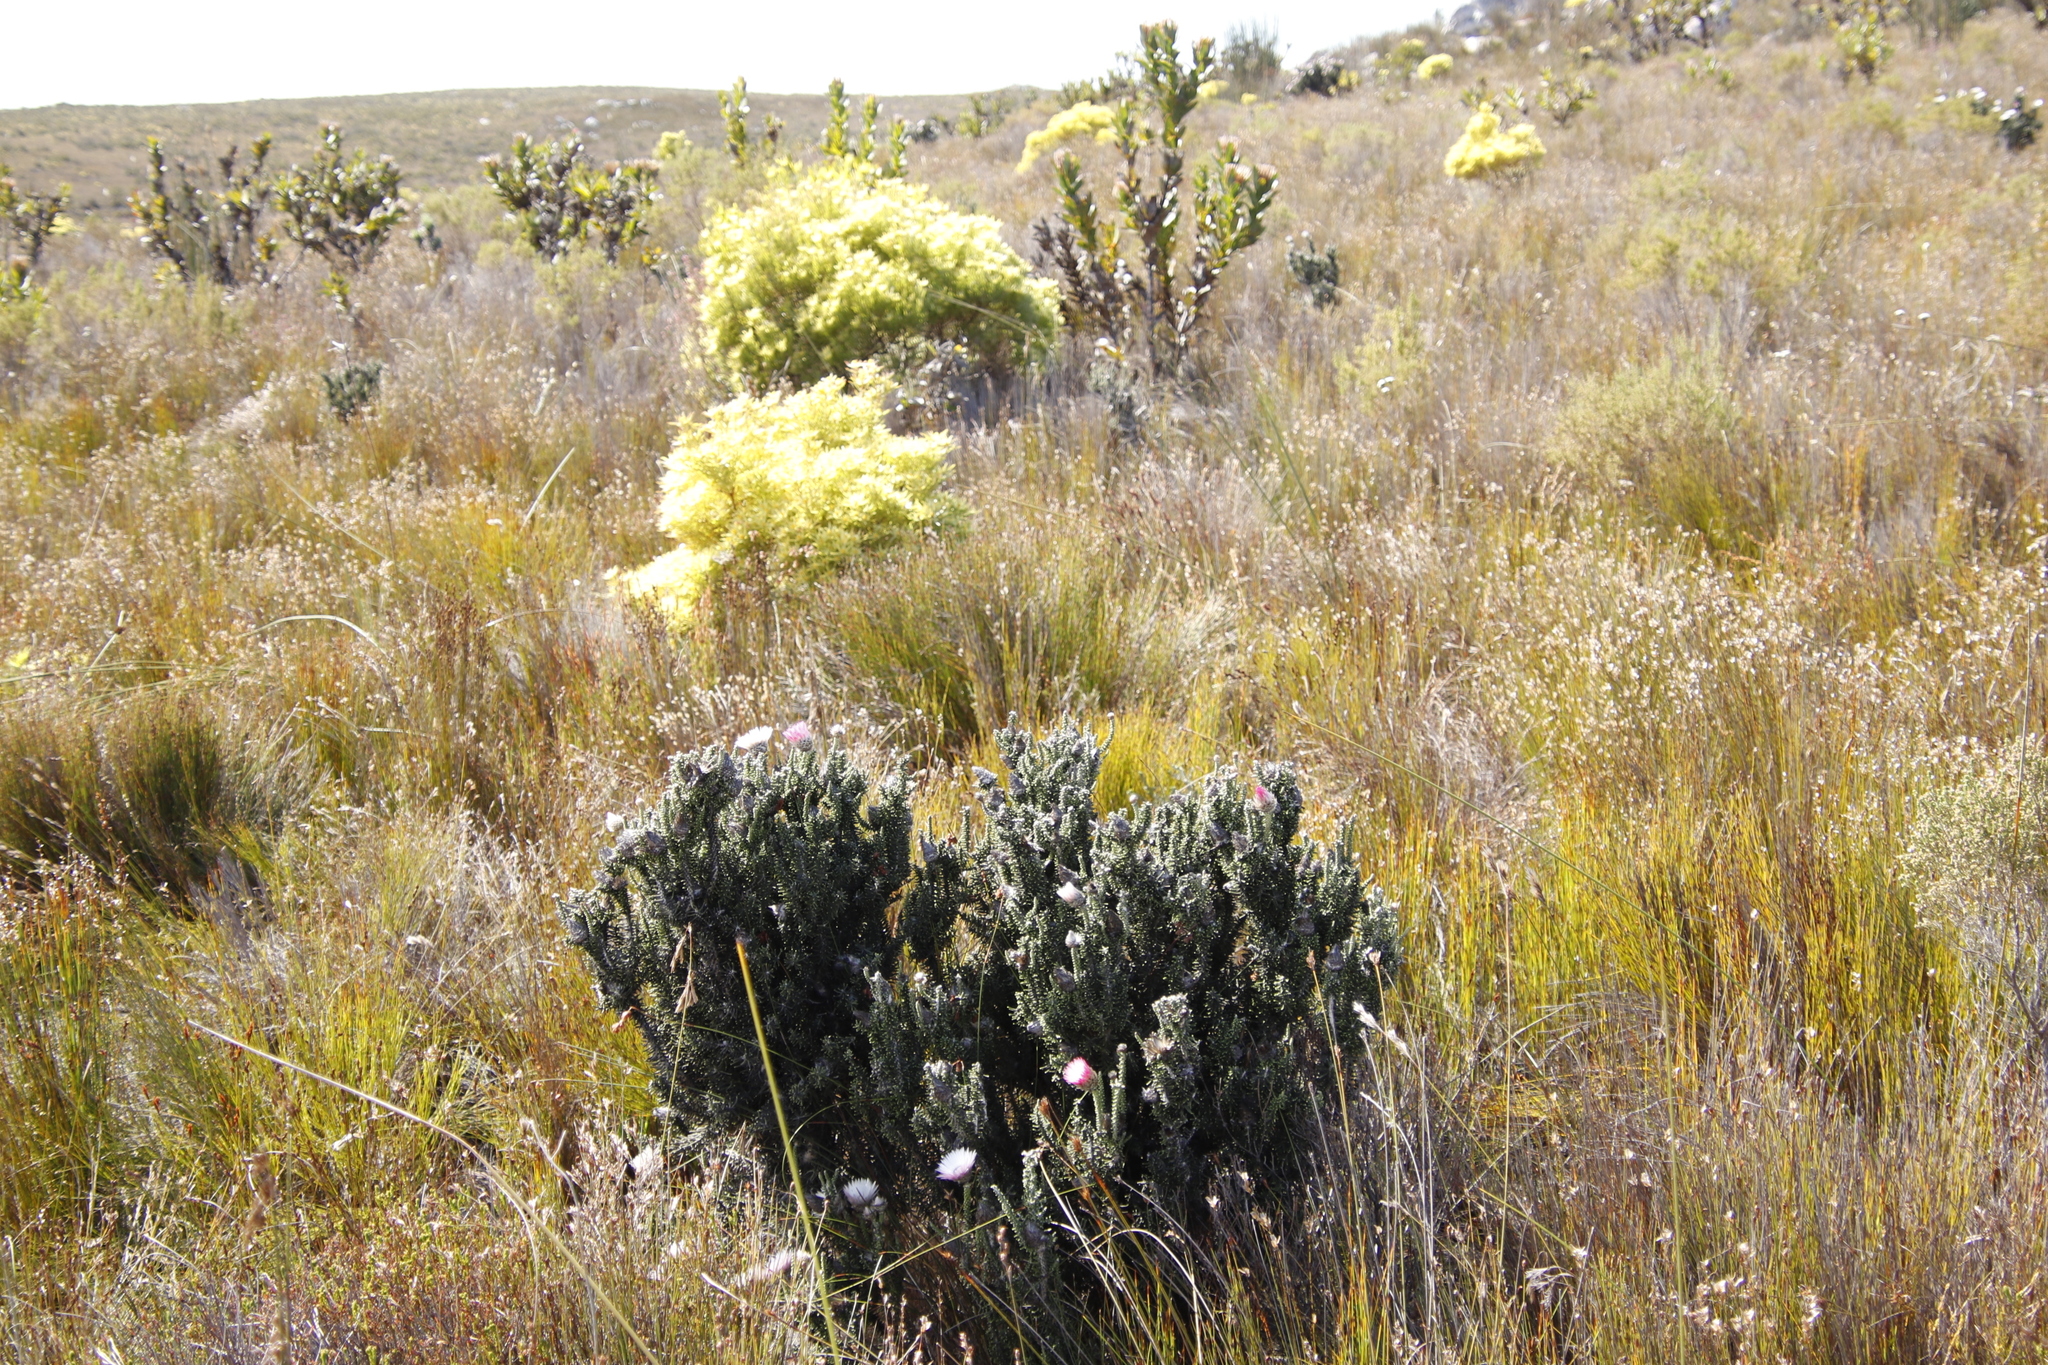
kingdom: Plantae
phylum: Tracheophyta
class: Magnoliopsida
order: Asterales
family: Asteraceae
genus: Phaenocoma
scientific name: Phaenocoma prolifera
